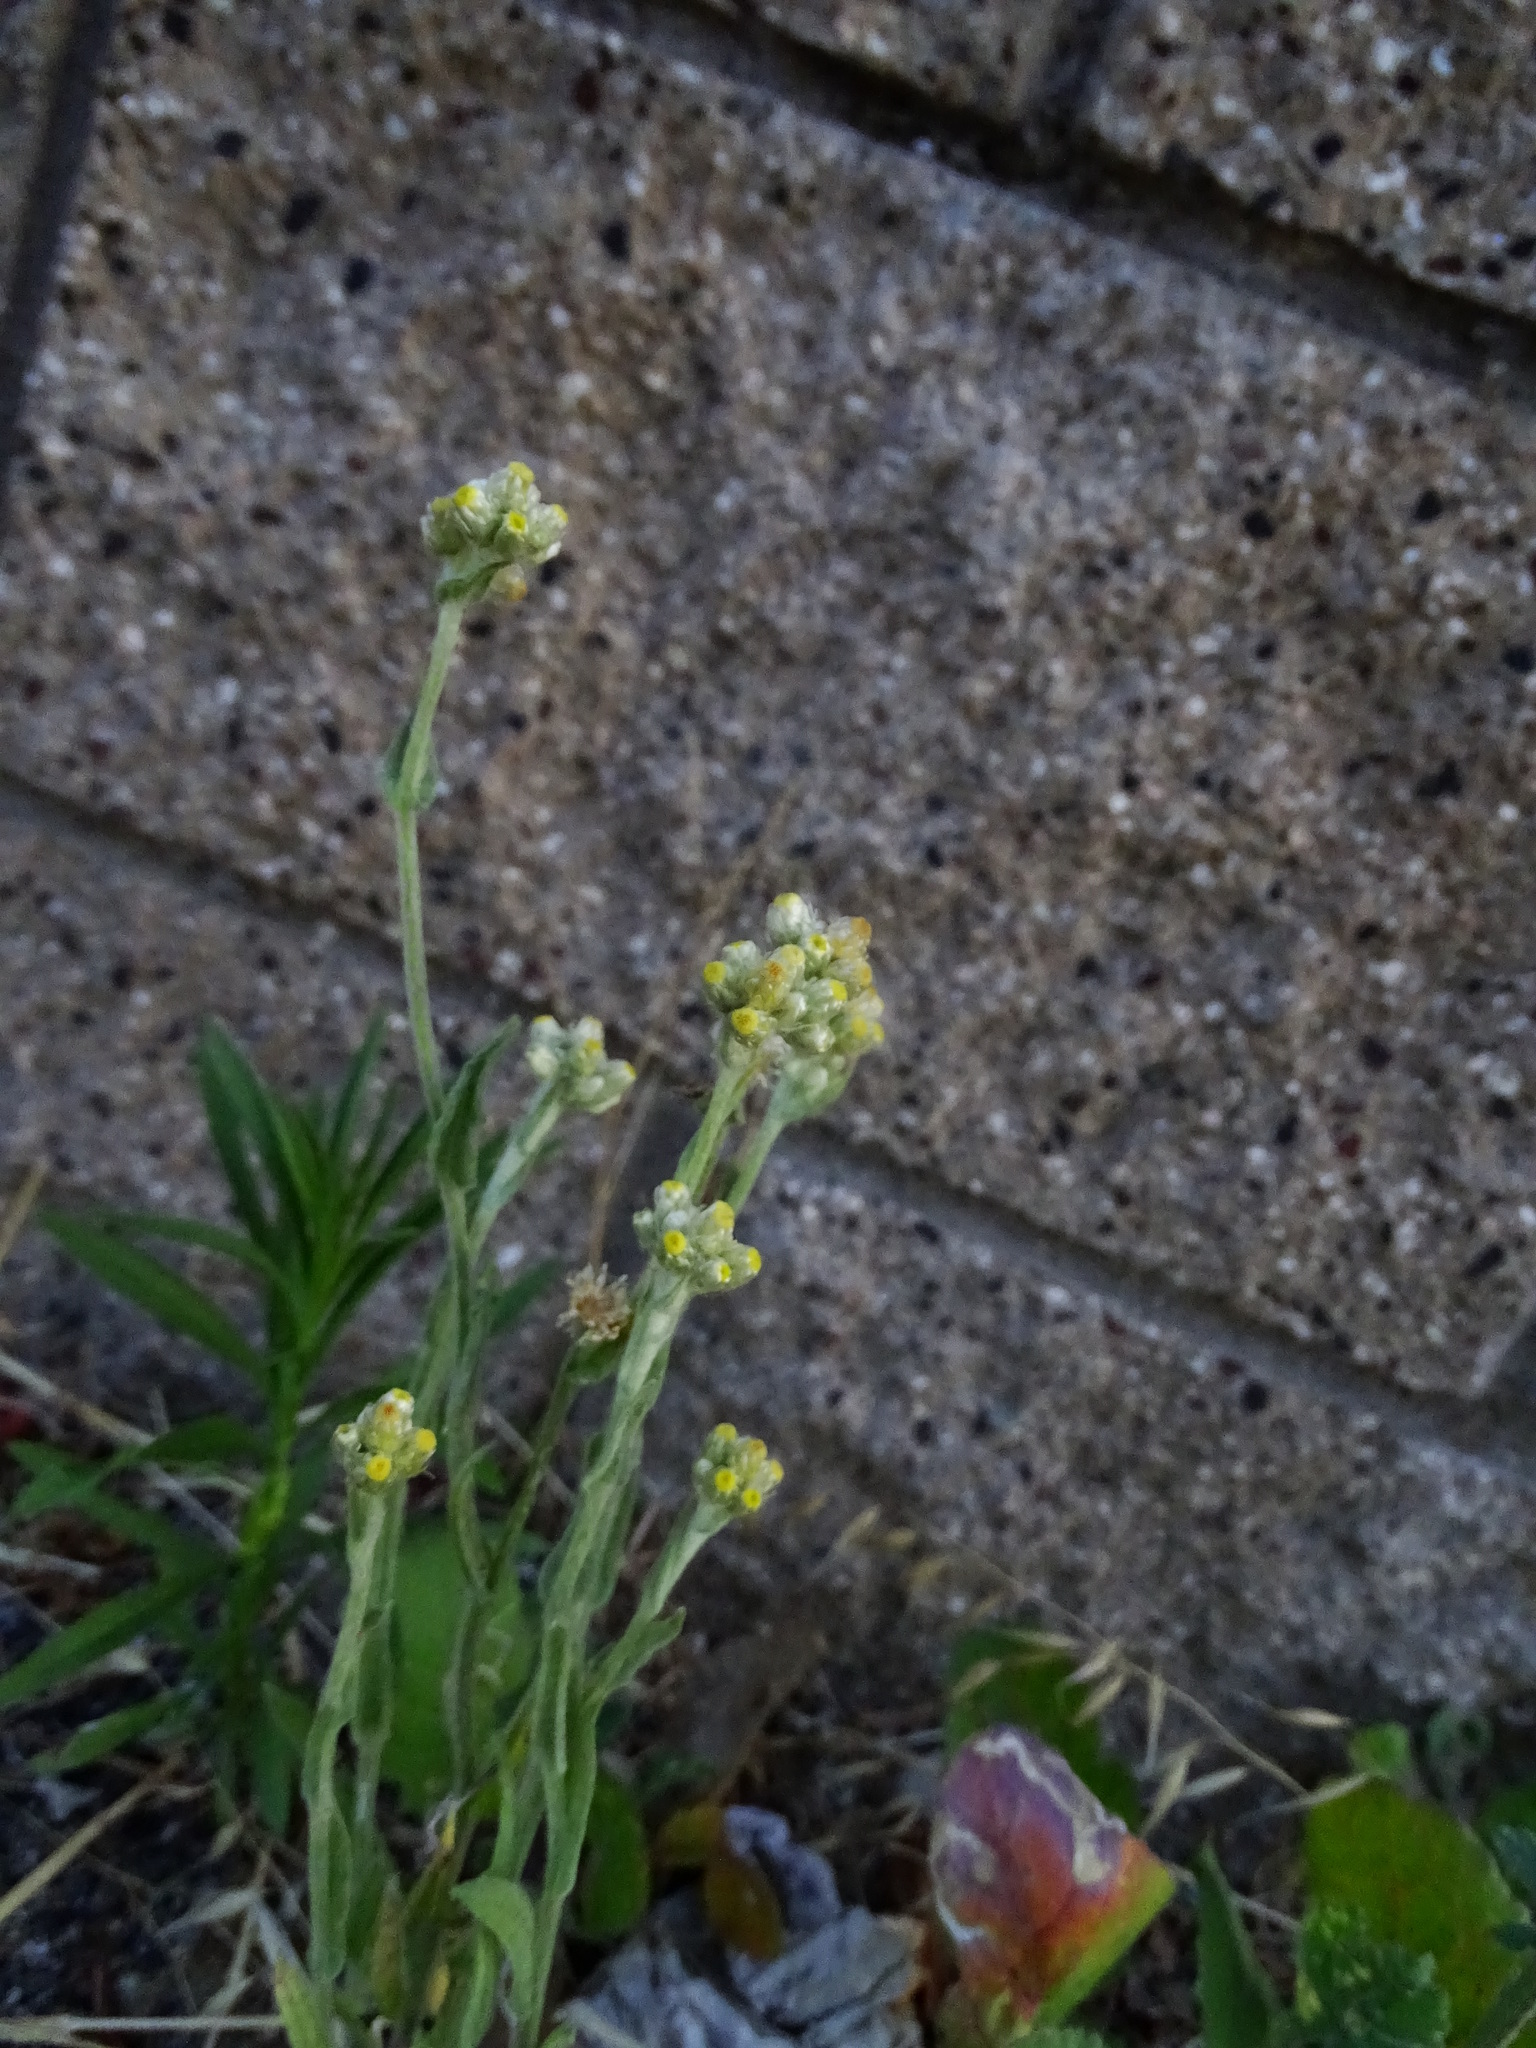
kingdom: Plantae
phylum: Tracheophyta
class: Magnoliopsida
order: Asterales
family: Asteraceae
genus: Pseudognaphalium
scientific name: Pseudognaphalium stramineum
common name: Cotton-batting-plant
